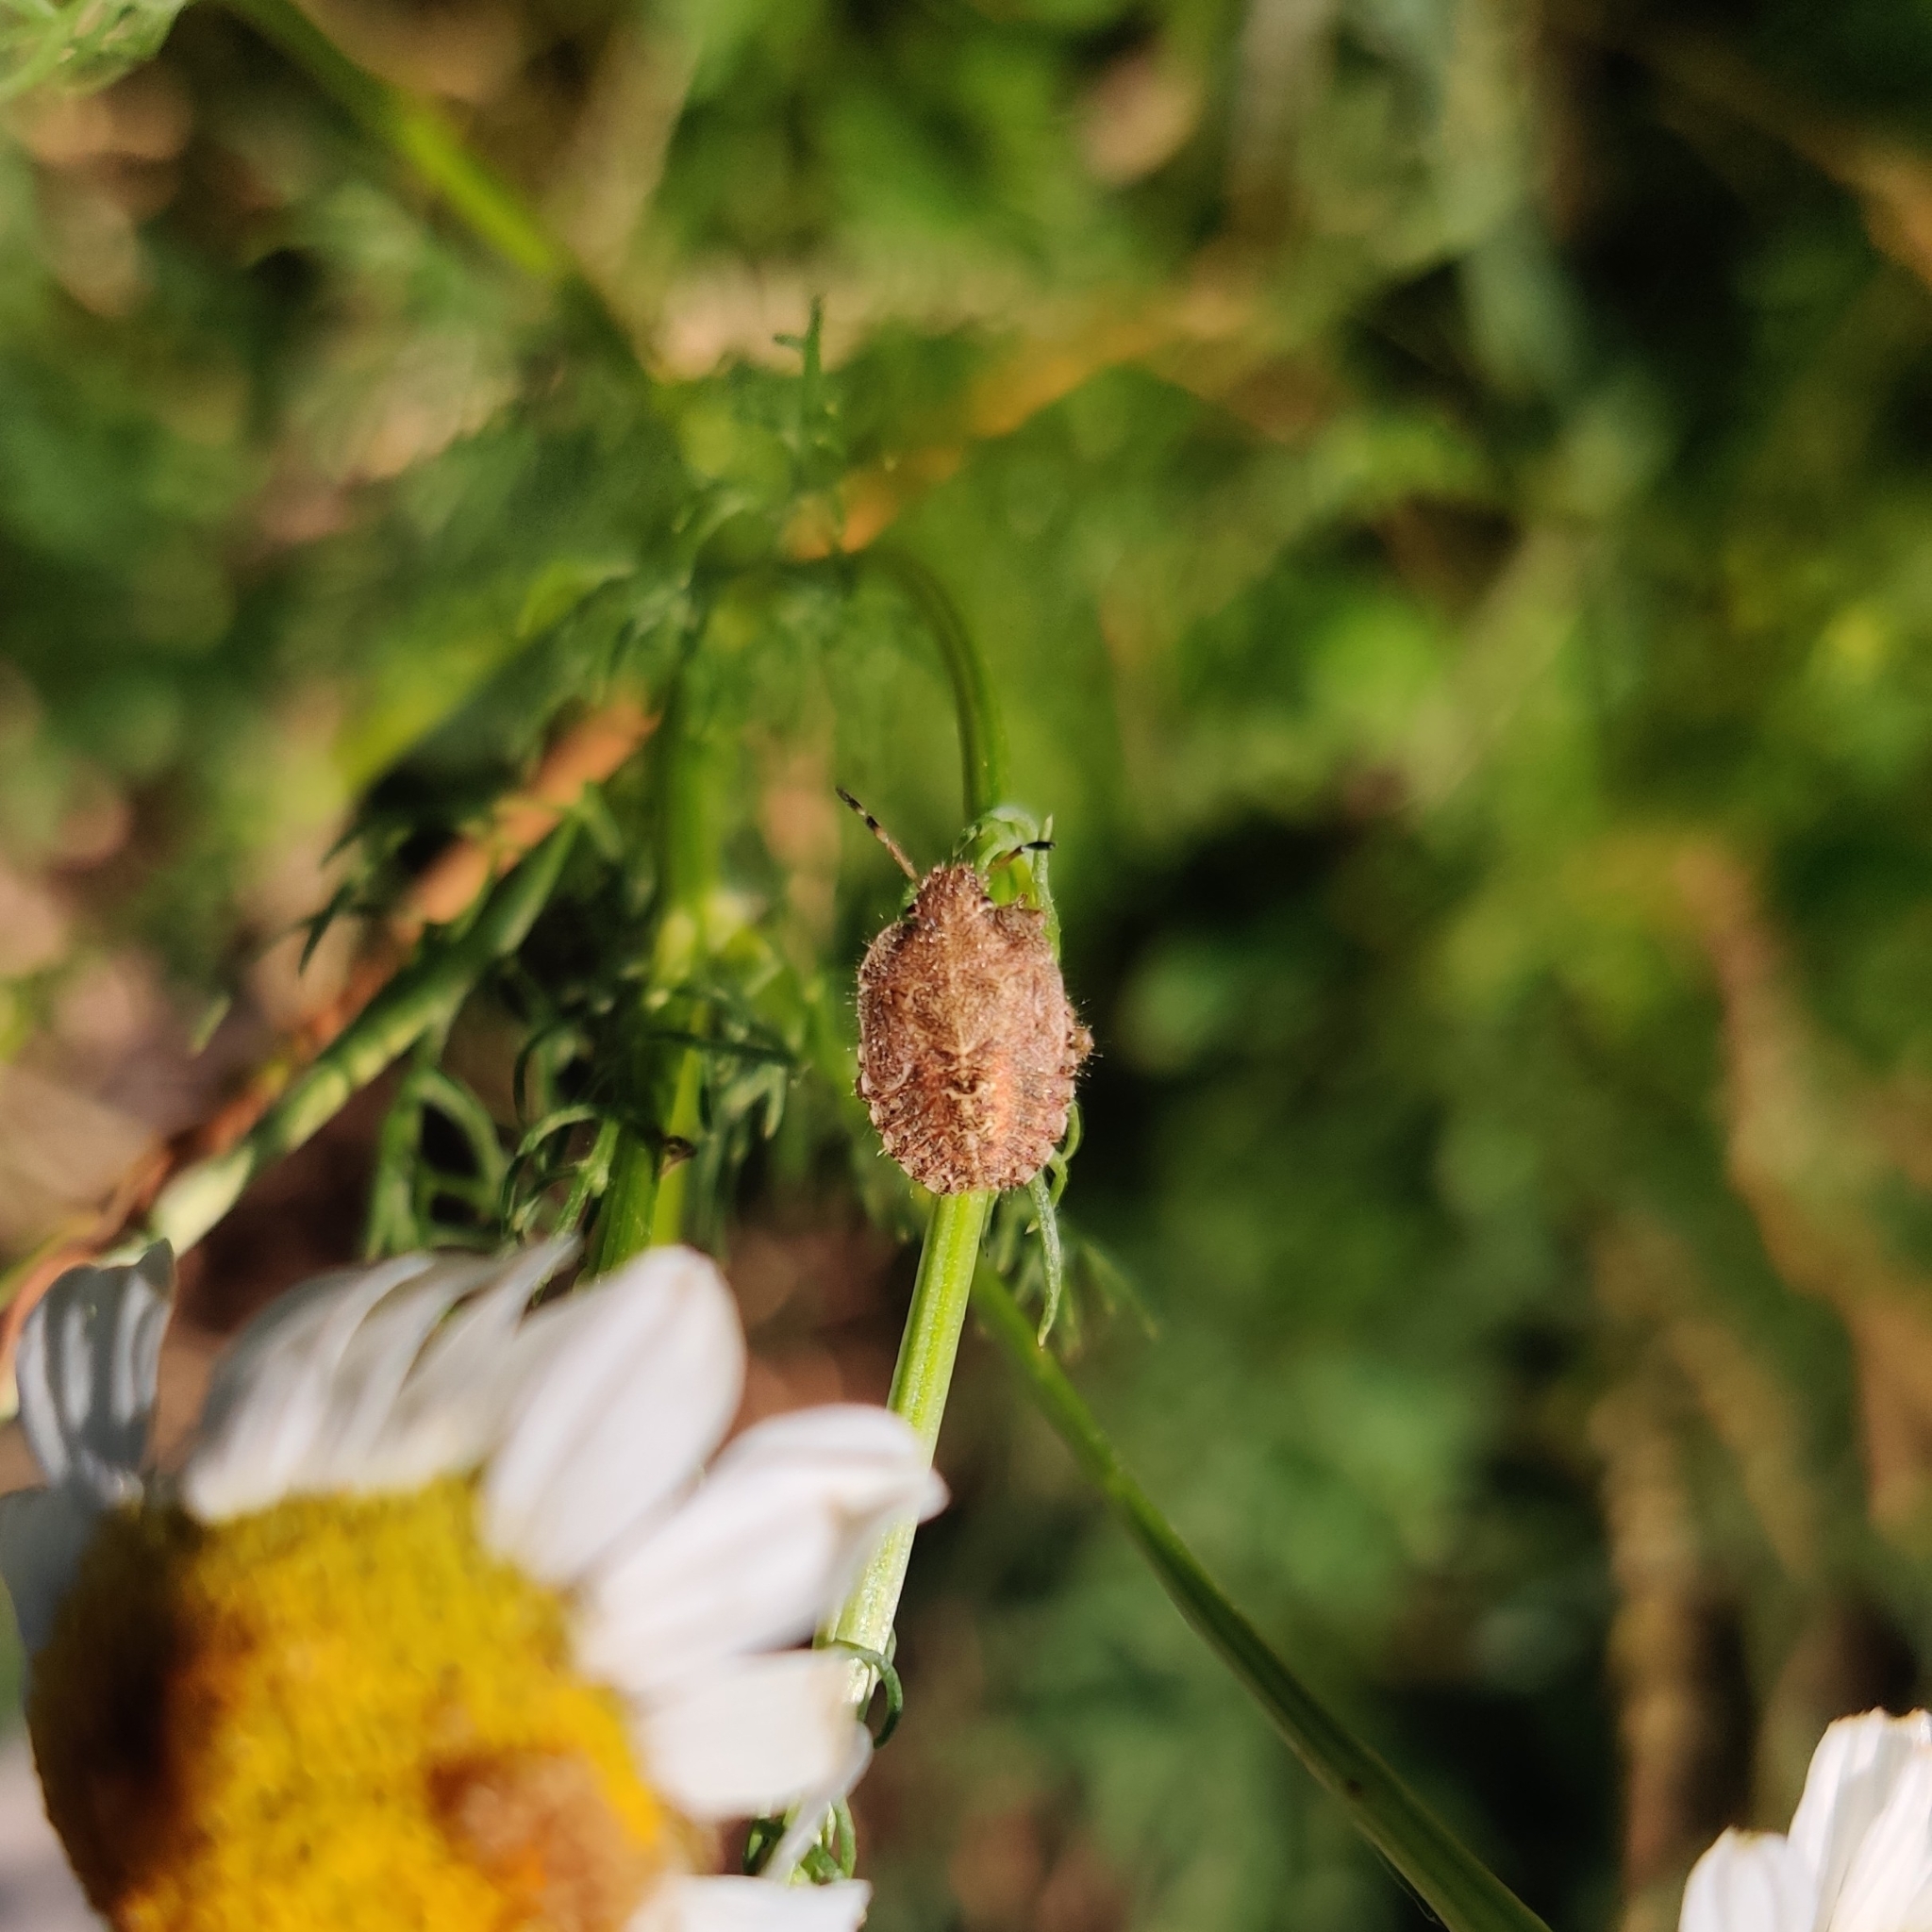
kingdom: Animalia
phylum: Arthropoda
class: Insecta
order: Hemiptera
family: Pentatomidae
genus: Dolycoris
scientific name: Dolycoris baccarum
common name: Sloe bug
